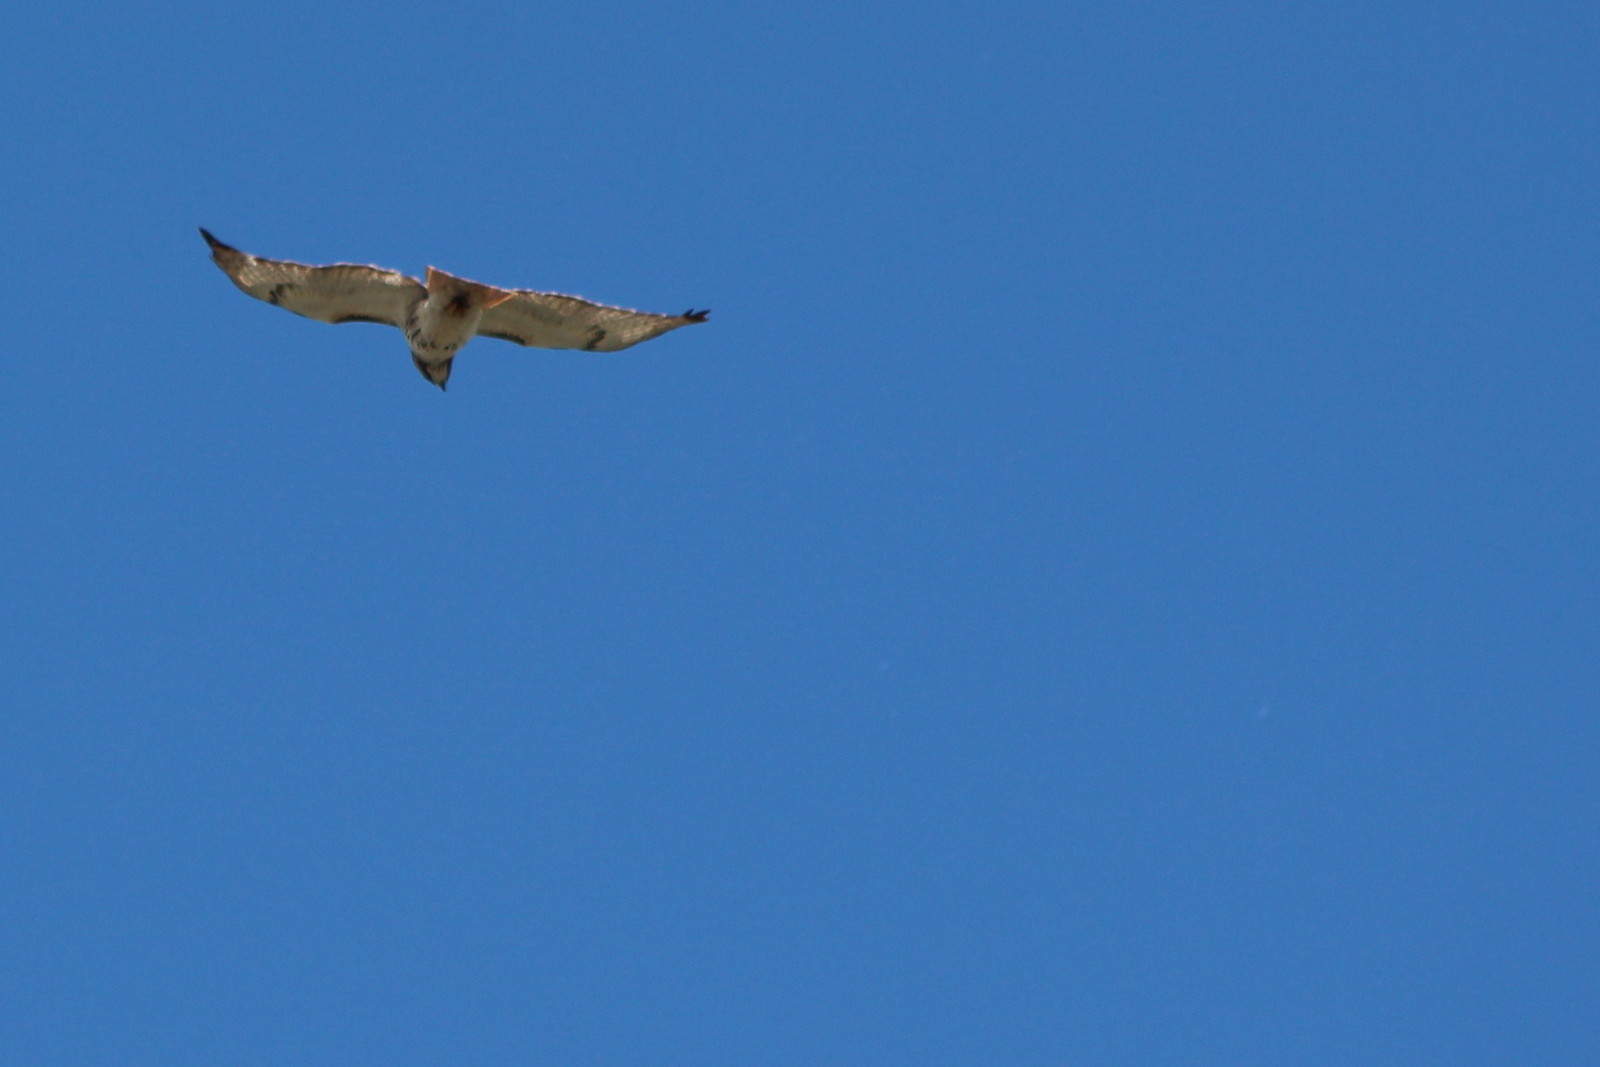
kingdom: Animalia
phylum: Chordata
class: Aves
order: Accipitriformes
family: Accipitridae
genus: Buteo
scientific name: Buteo jamaicensis
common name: Red-tailed hawk
